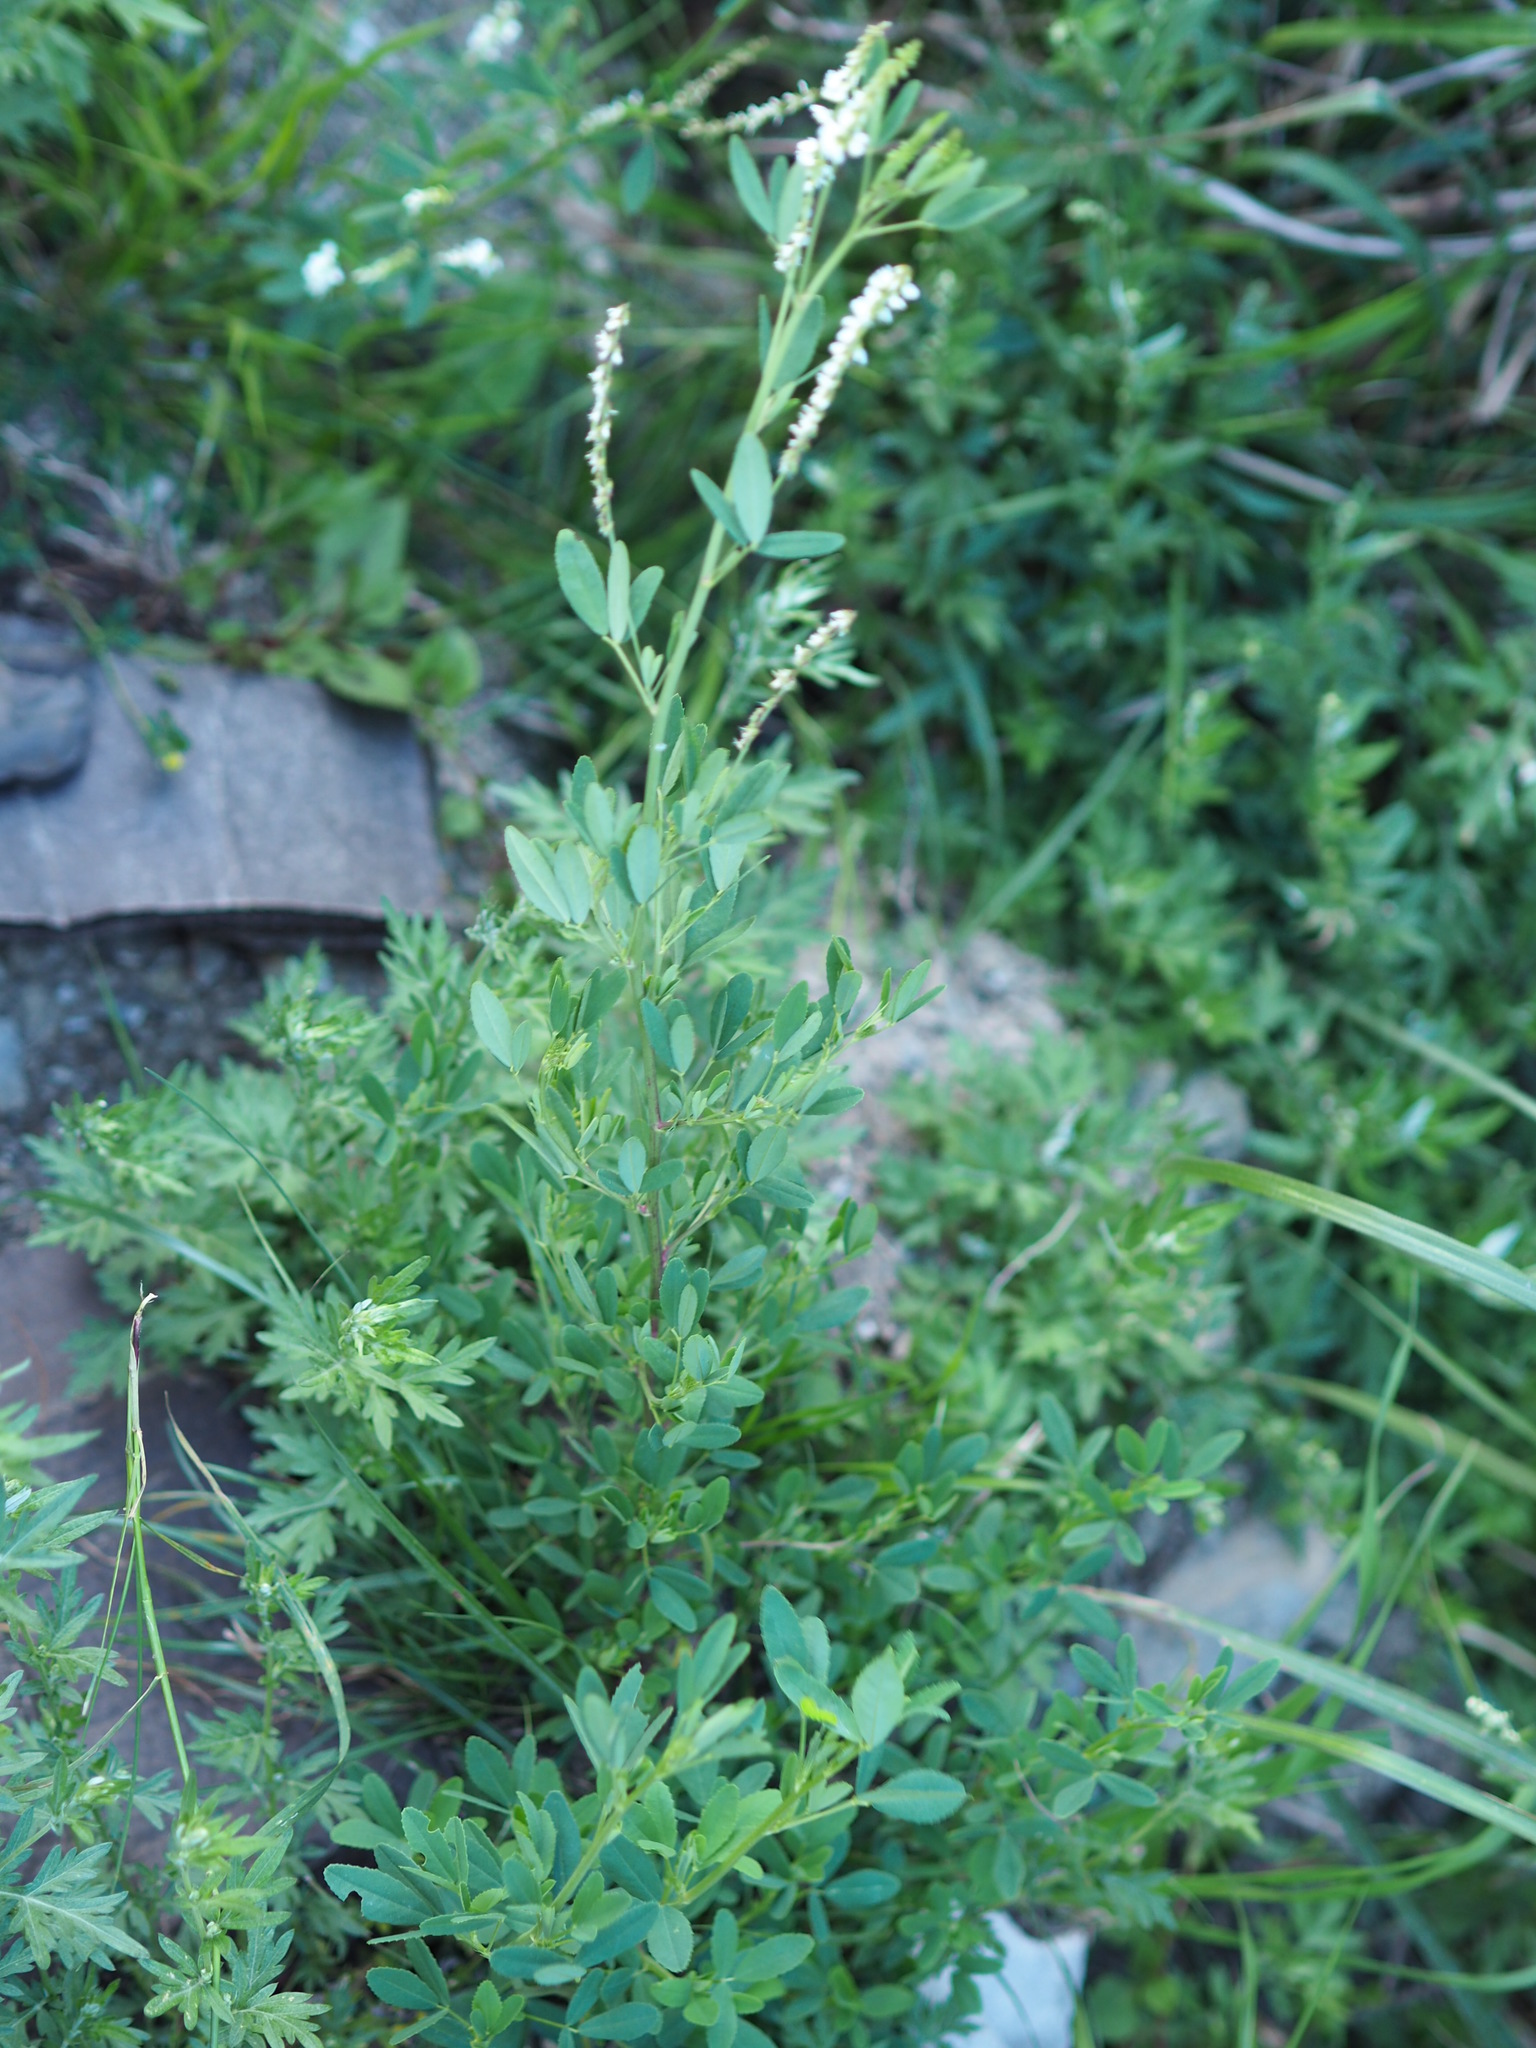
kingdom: Plantae
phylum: Tracheophyta
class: Magnoliopsida
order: Fabales
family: Fabaceae
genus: Melilotus
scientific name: Melilotus albus
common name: White melilot
